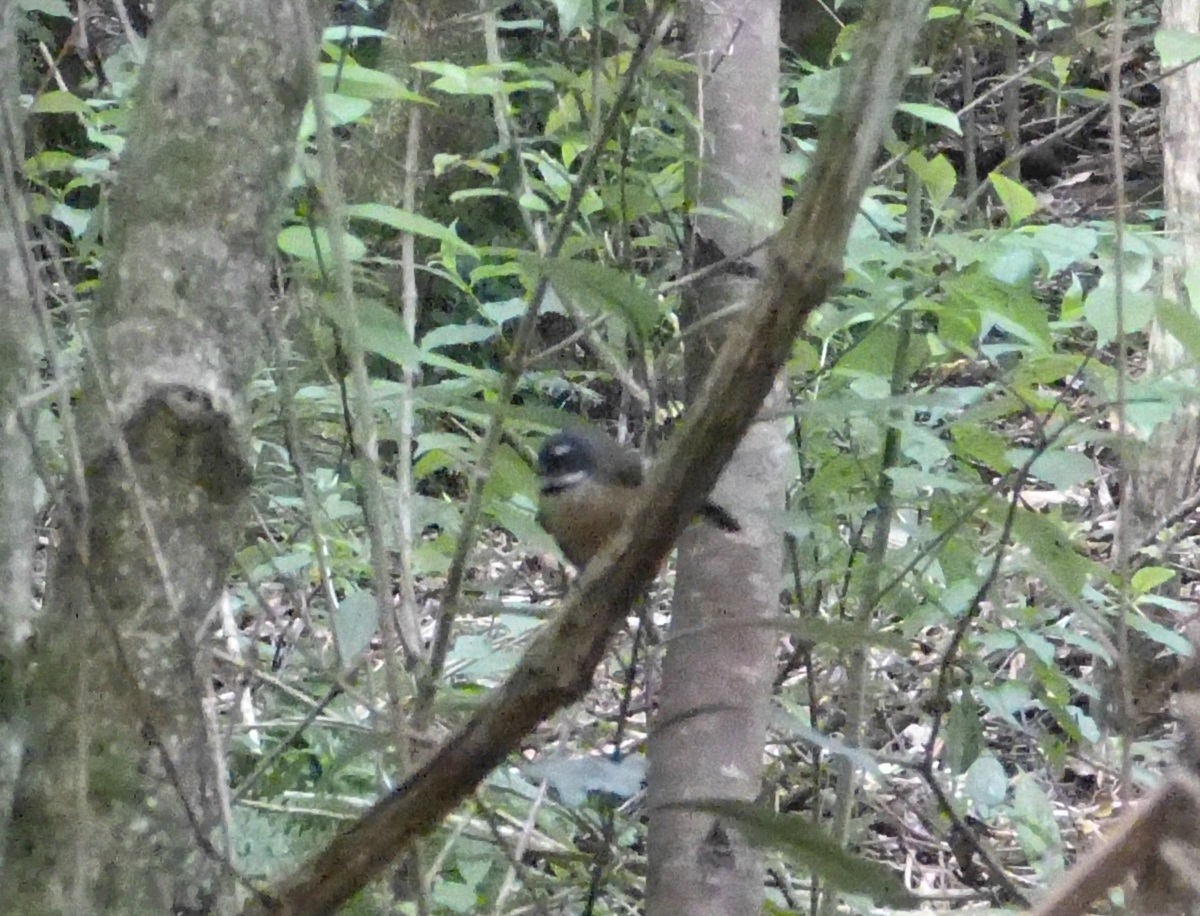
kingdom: Animalia
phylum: Chordata
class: Aves
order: Passeriformes
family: Rhipiduridae
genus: Rhipidura
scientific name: Rhipidura fuliginosa
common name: New zealand fantail
